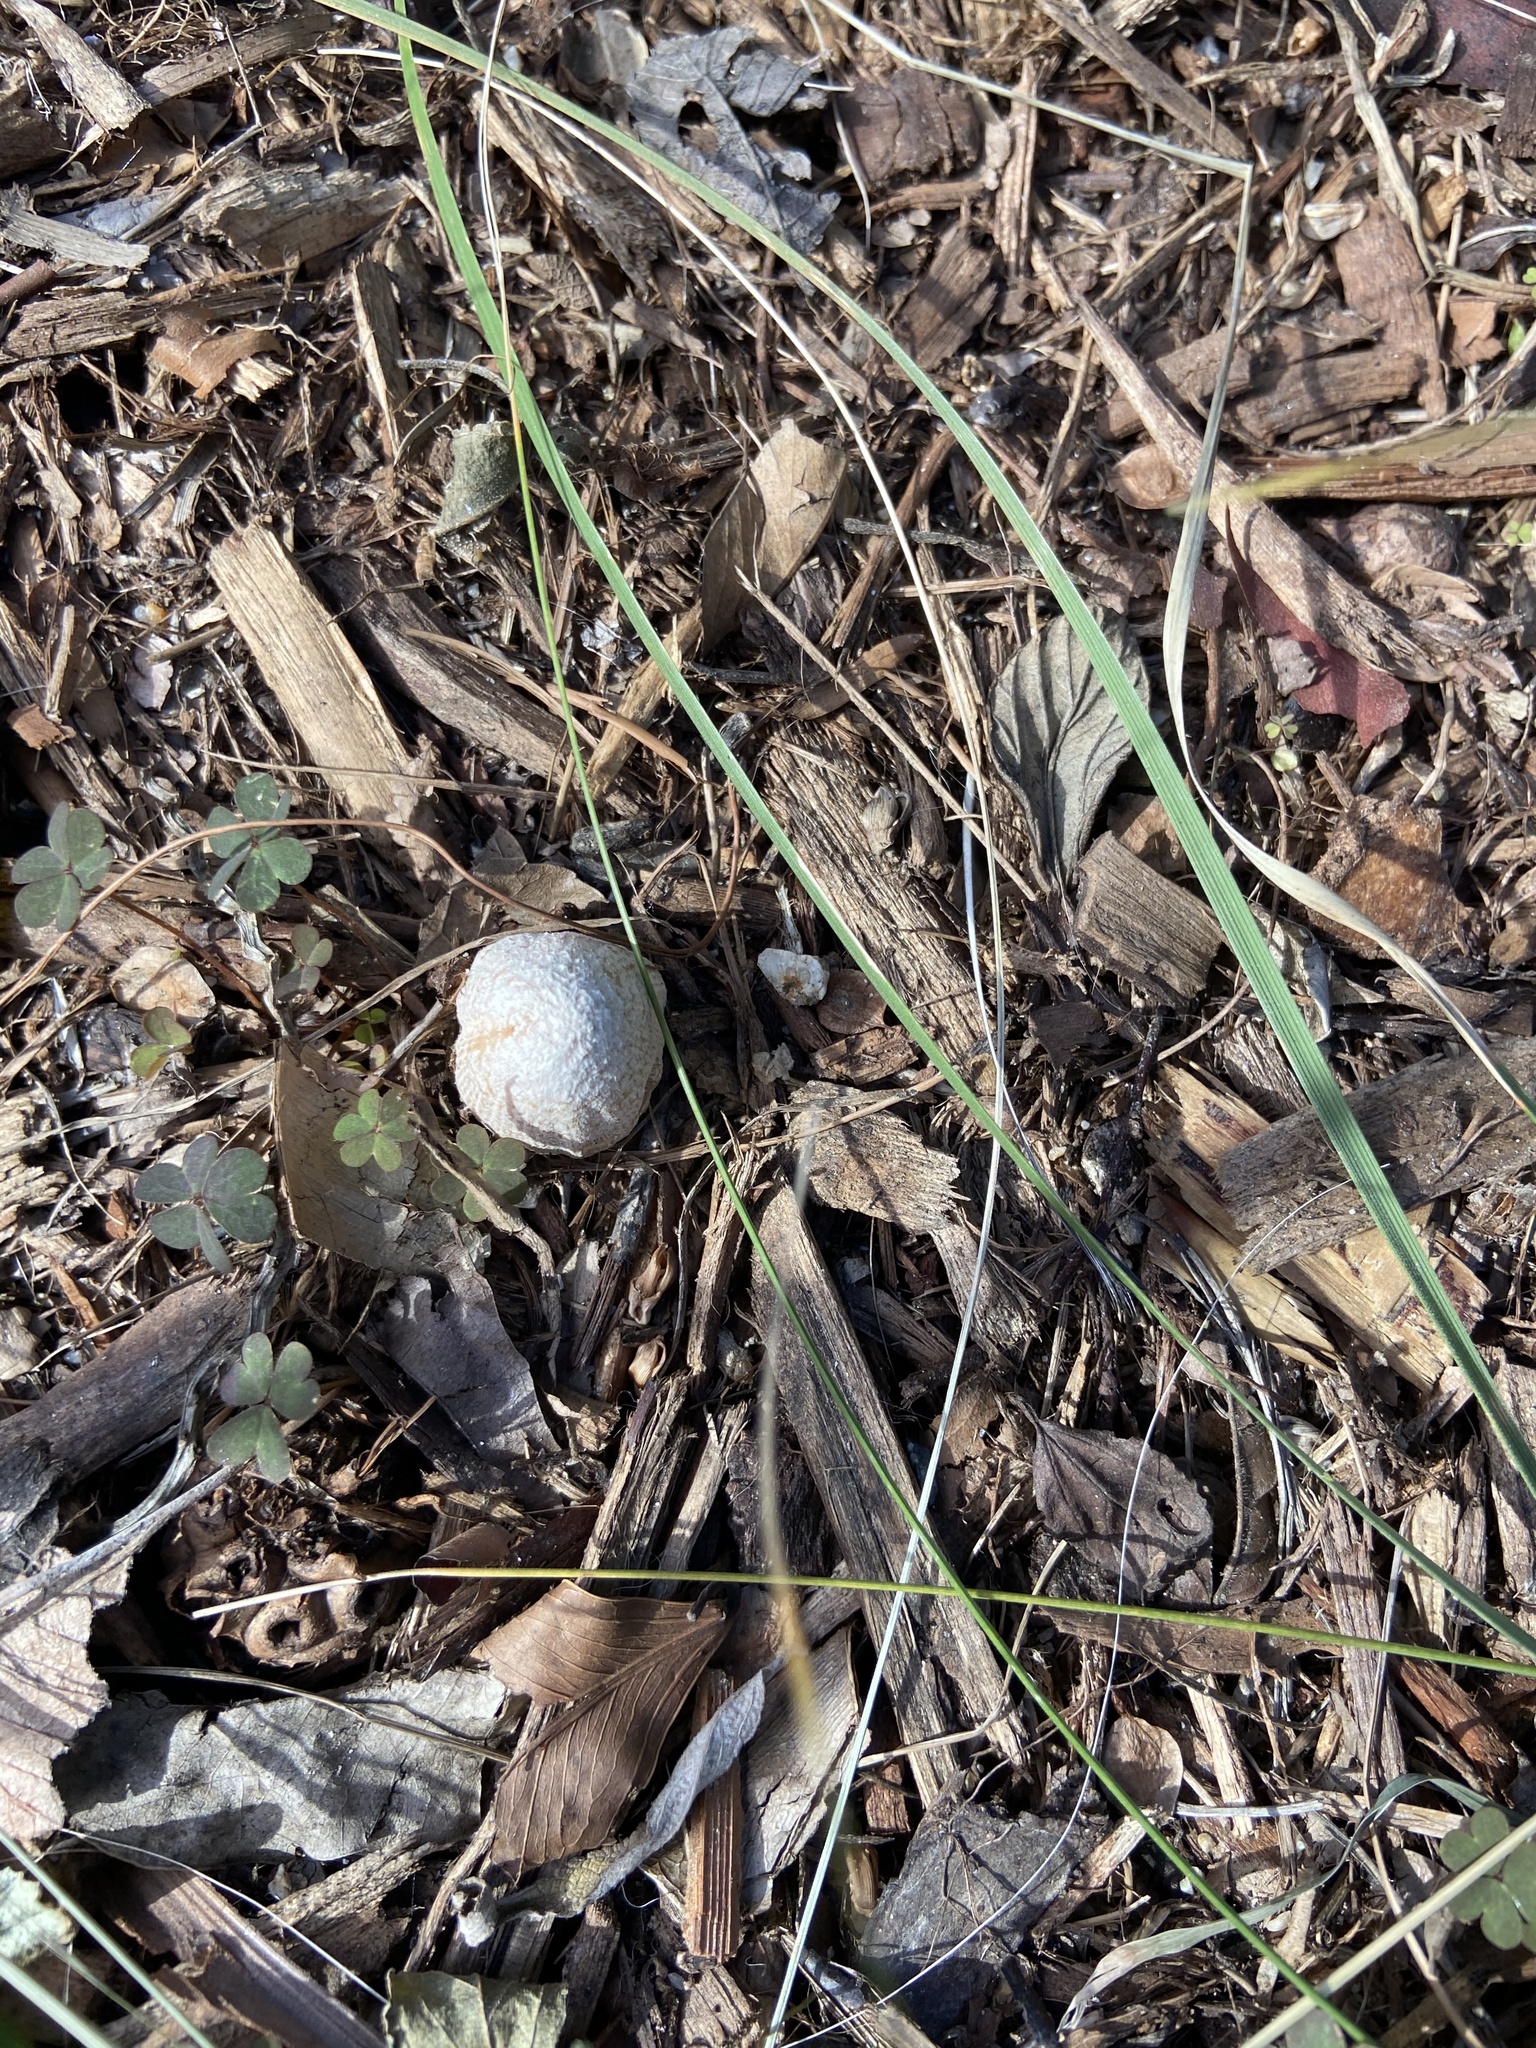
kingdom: Fungi
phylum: Basidiomycota
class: Agaricomycetes
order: Agaricales
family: Psathyrellaceae
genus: Coprinellus
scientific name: Coprinellus flocculosus
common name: Flocculose inkcap
